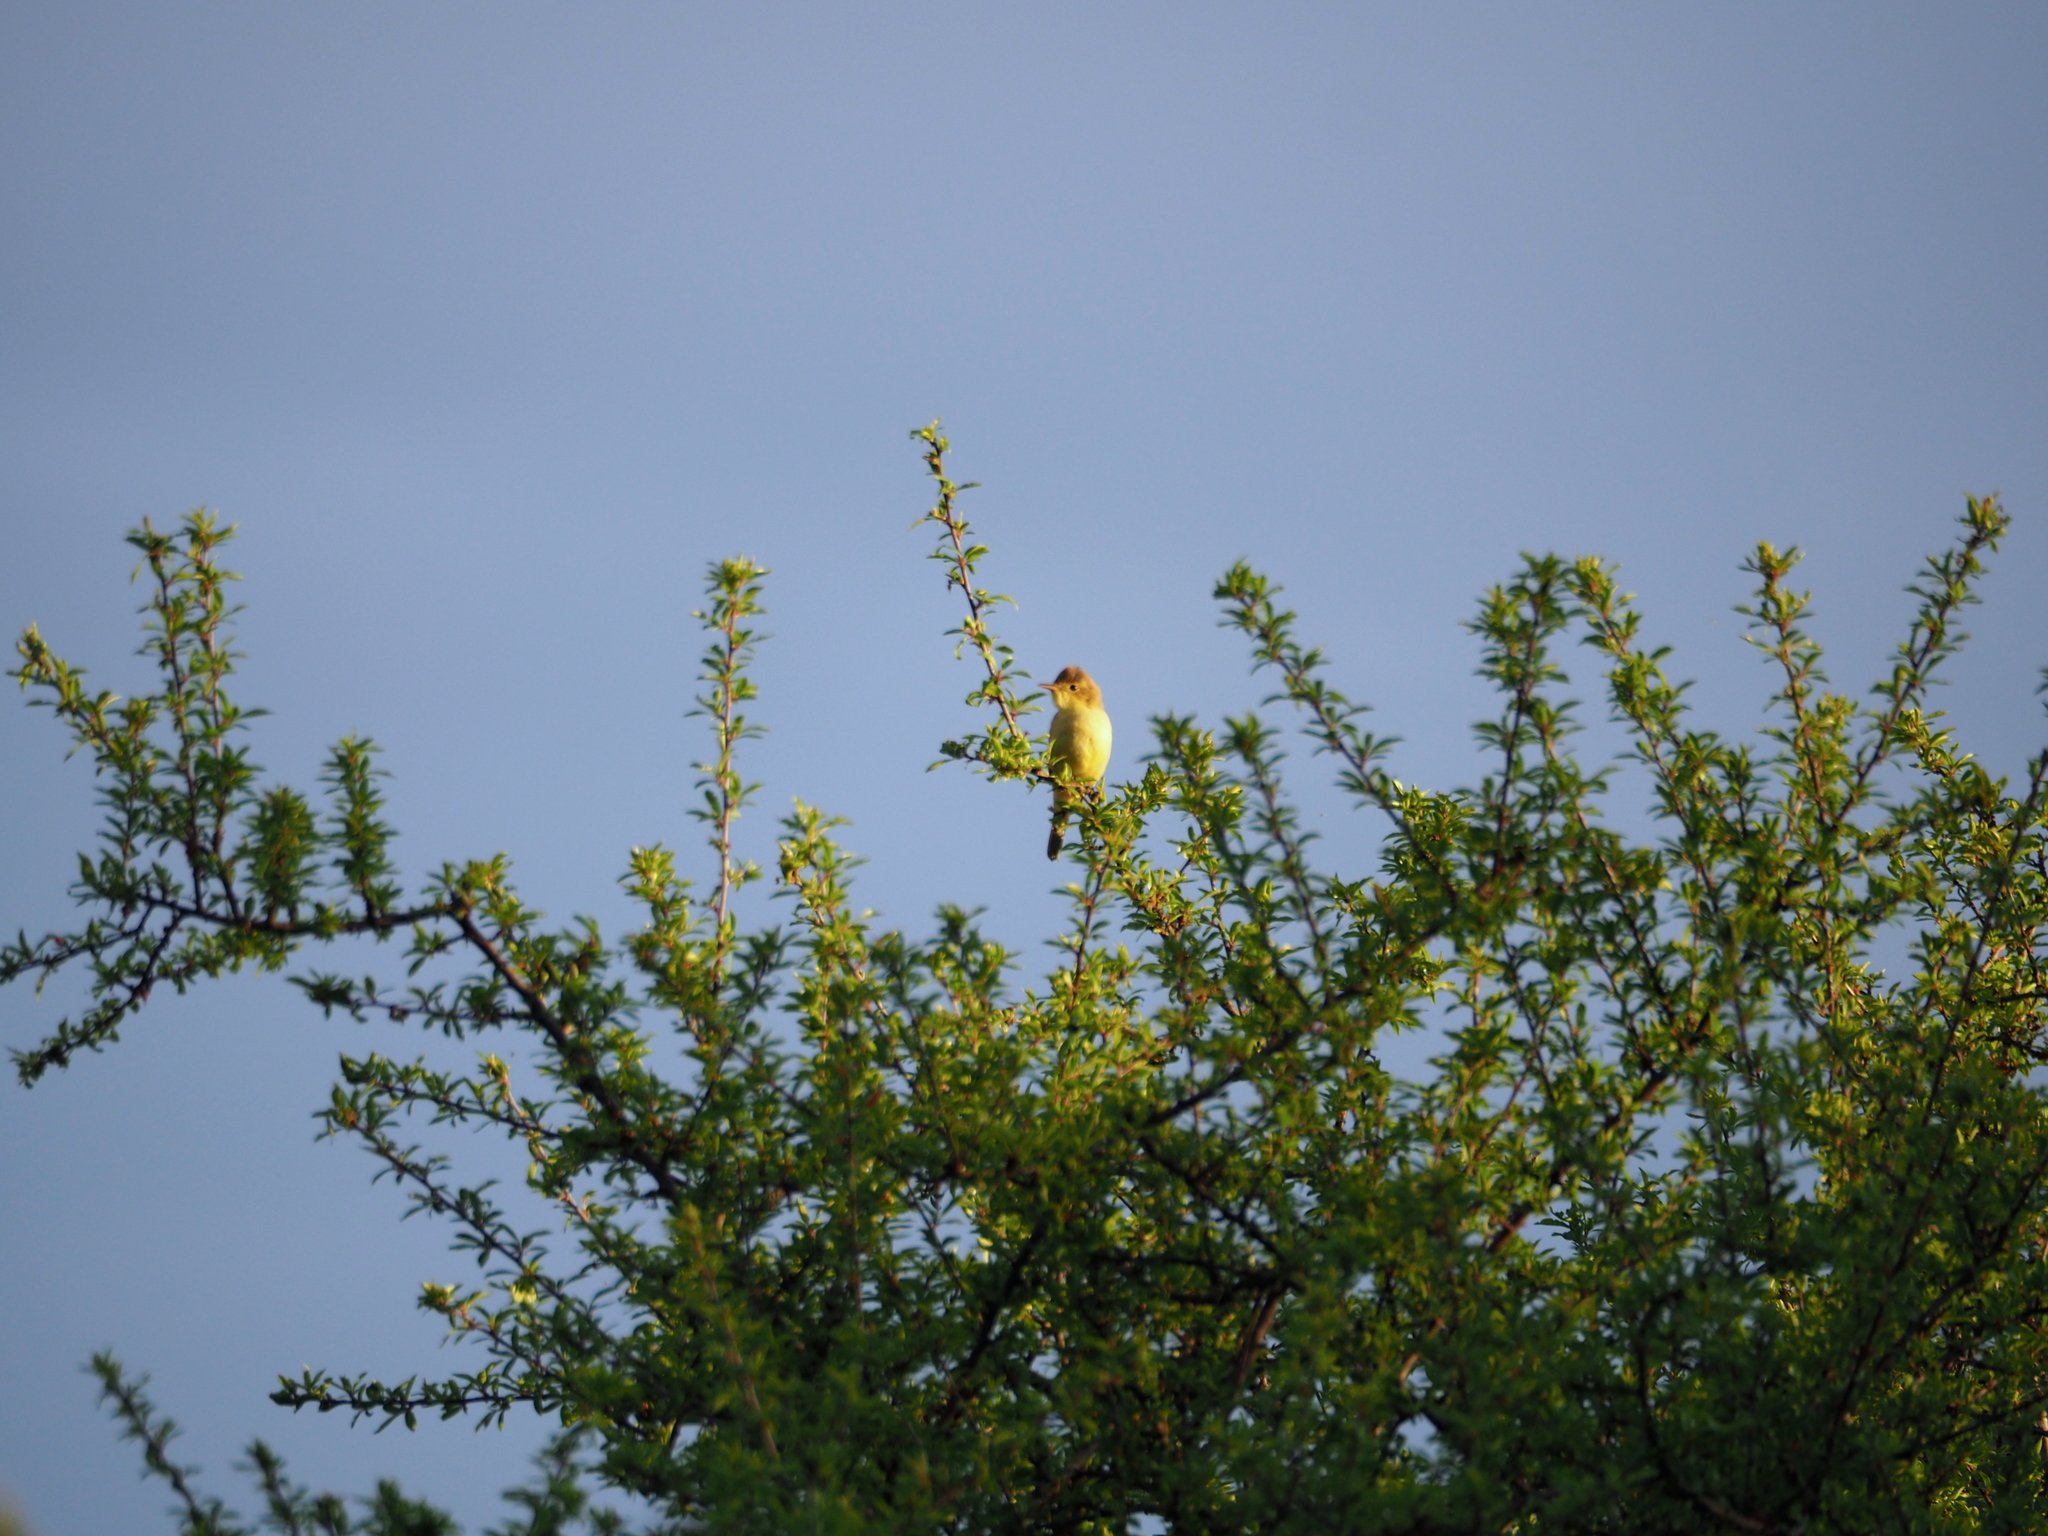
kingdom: Animalia
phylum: Chordata
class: Aves
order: Passeriformes
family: Acrocephalidae
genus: Hippolais
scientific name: Hippolais polyglotta
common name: Melodious warbler
